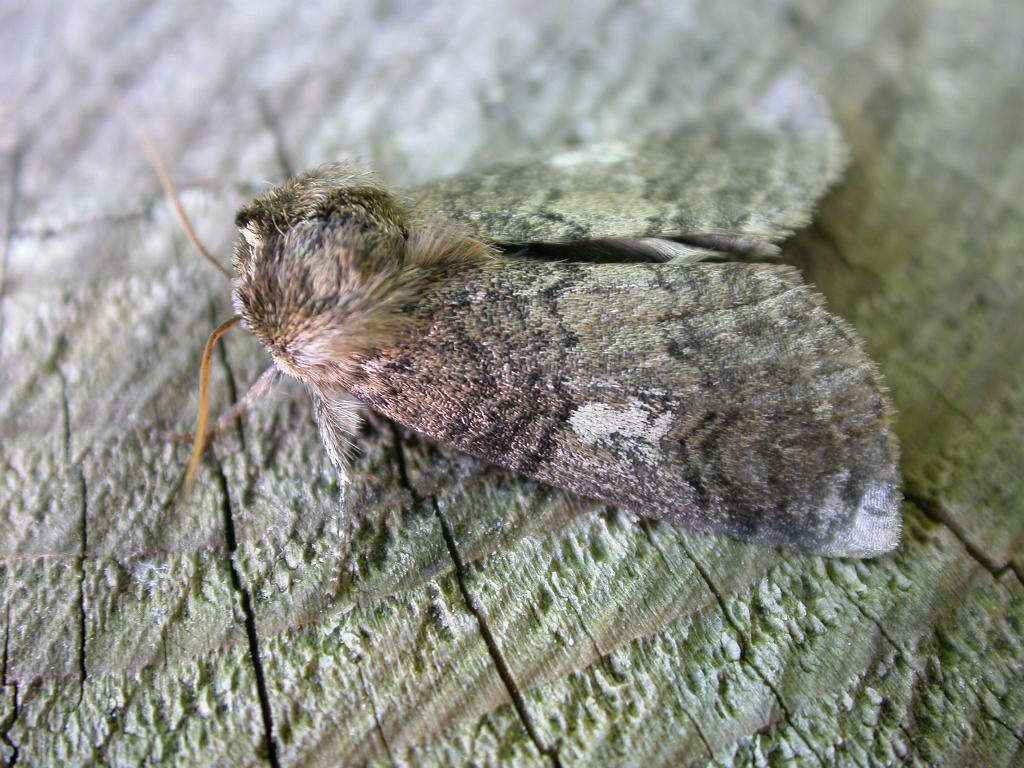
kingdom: Animalia
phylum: Arthropoda
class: Insecta
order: Lepidoptera
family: Drepanidae
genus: Tethea
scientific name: Tethea or
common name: Poplar lutestring
